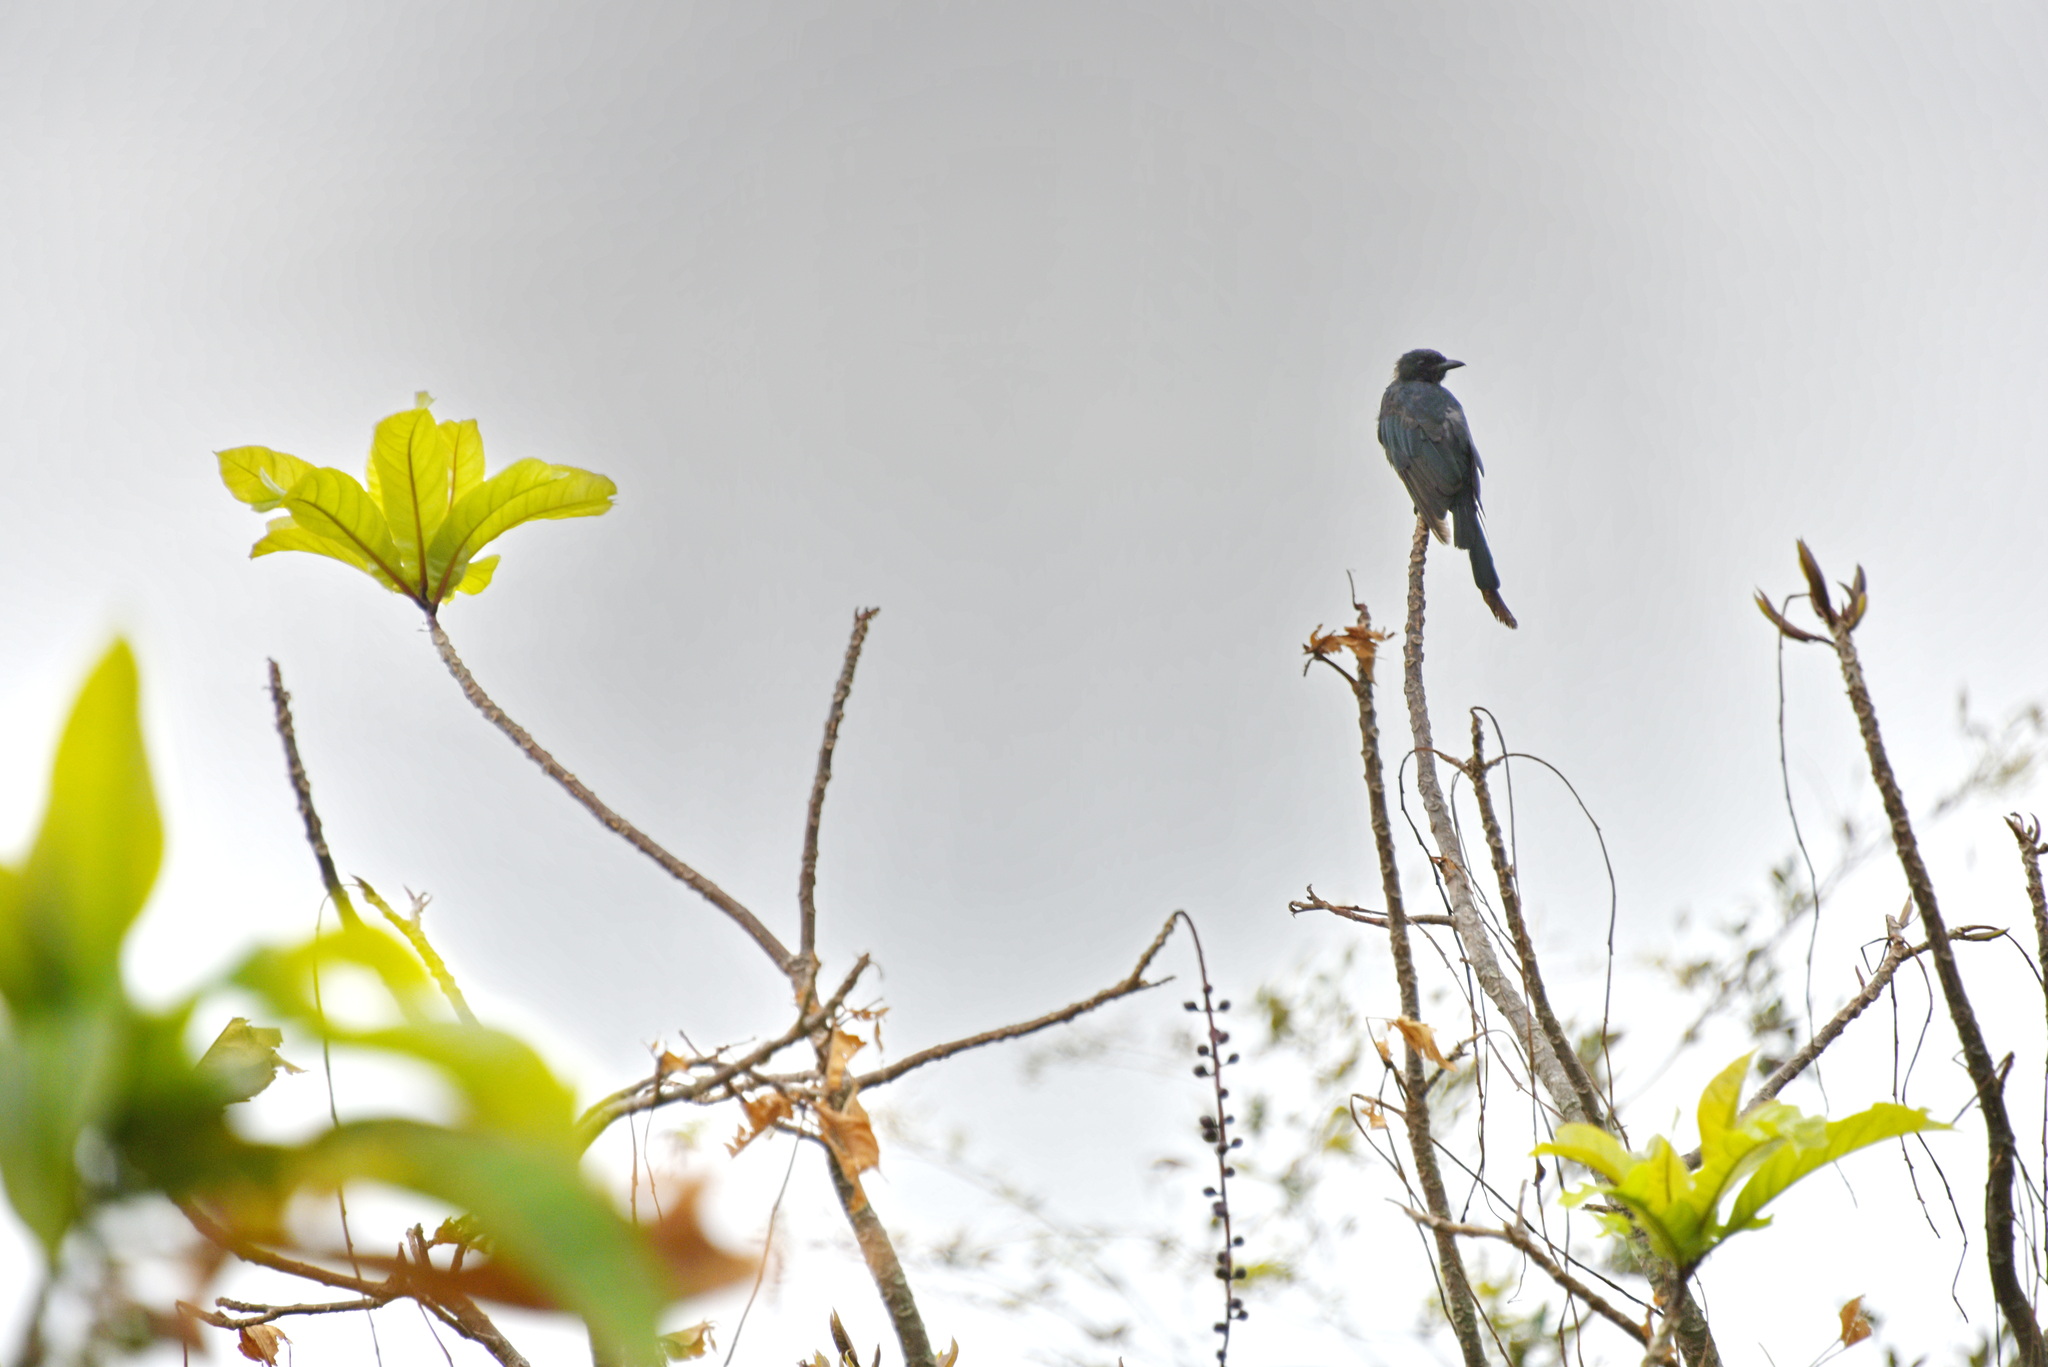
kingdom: Animalia
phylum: Chordata
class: Aves
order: Passeriformes
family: Dicruridae
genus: Dicrurus
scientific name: Dicrurus macrocercus
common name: Black drongo
